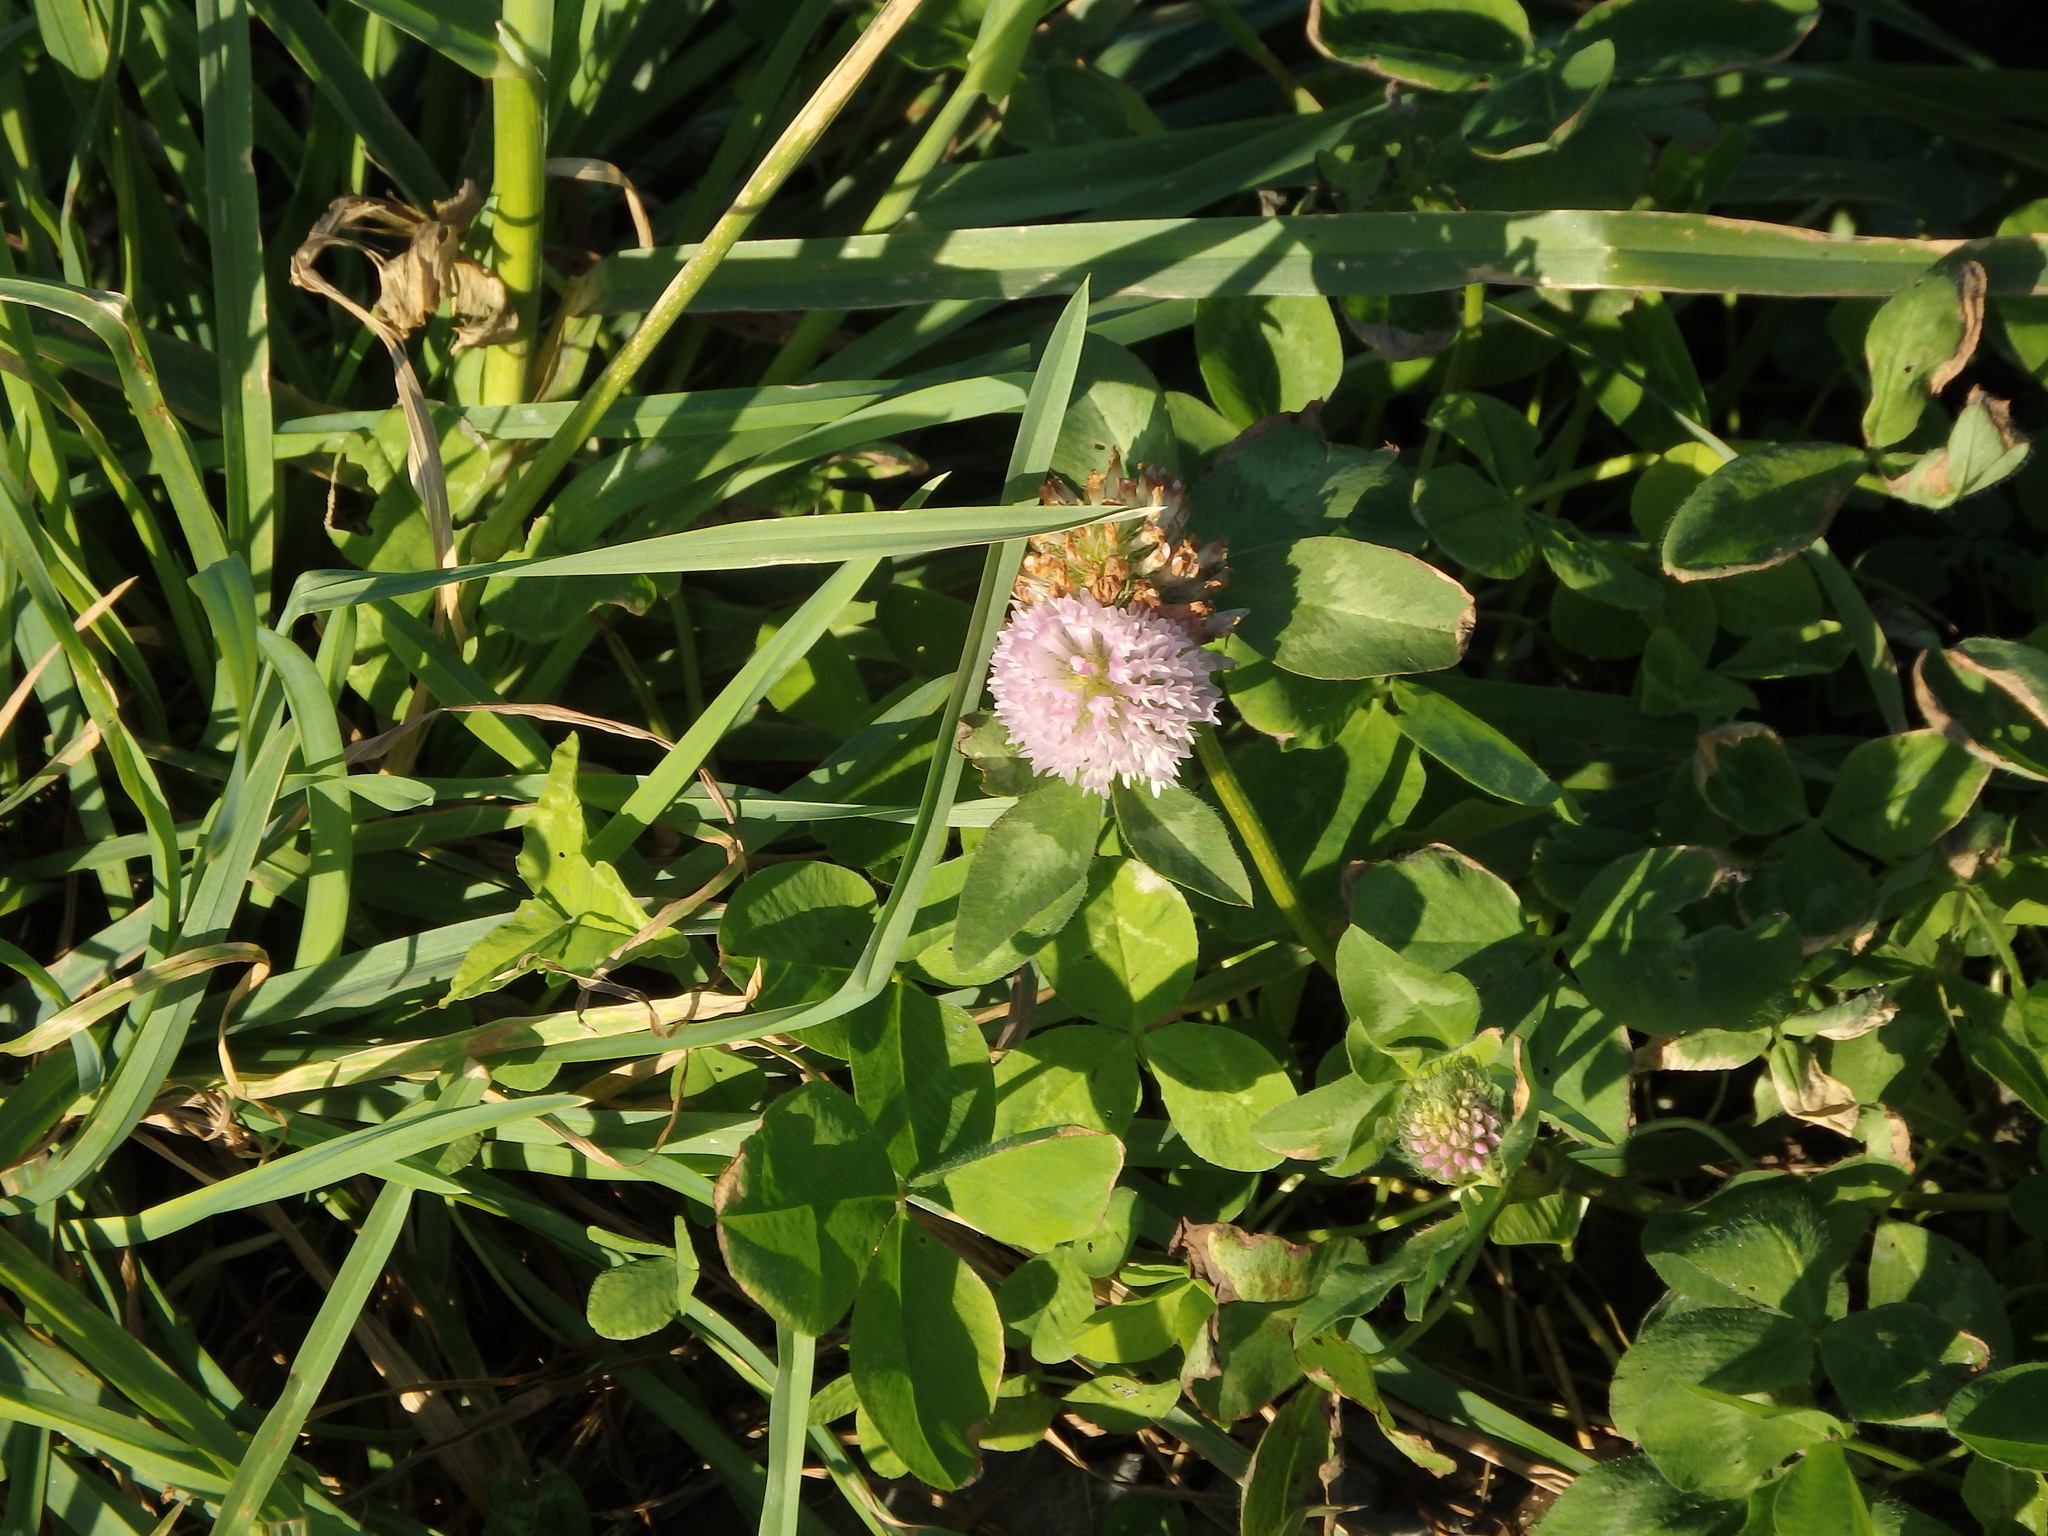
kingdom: Plantae
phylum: Tracheophyta
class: Magnoliopsida
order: Fabales
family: Fabaceae
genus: Trifolium
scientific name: Trifolium pratense
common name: Red clover
